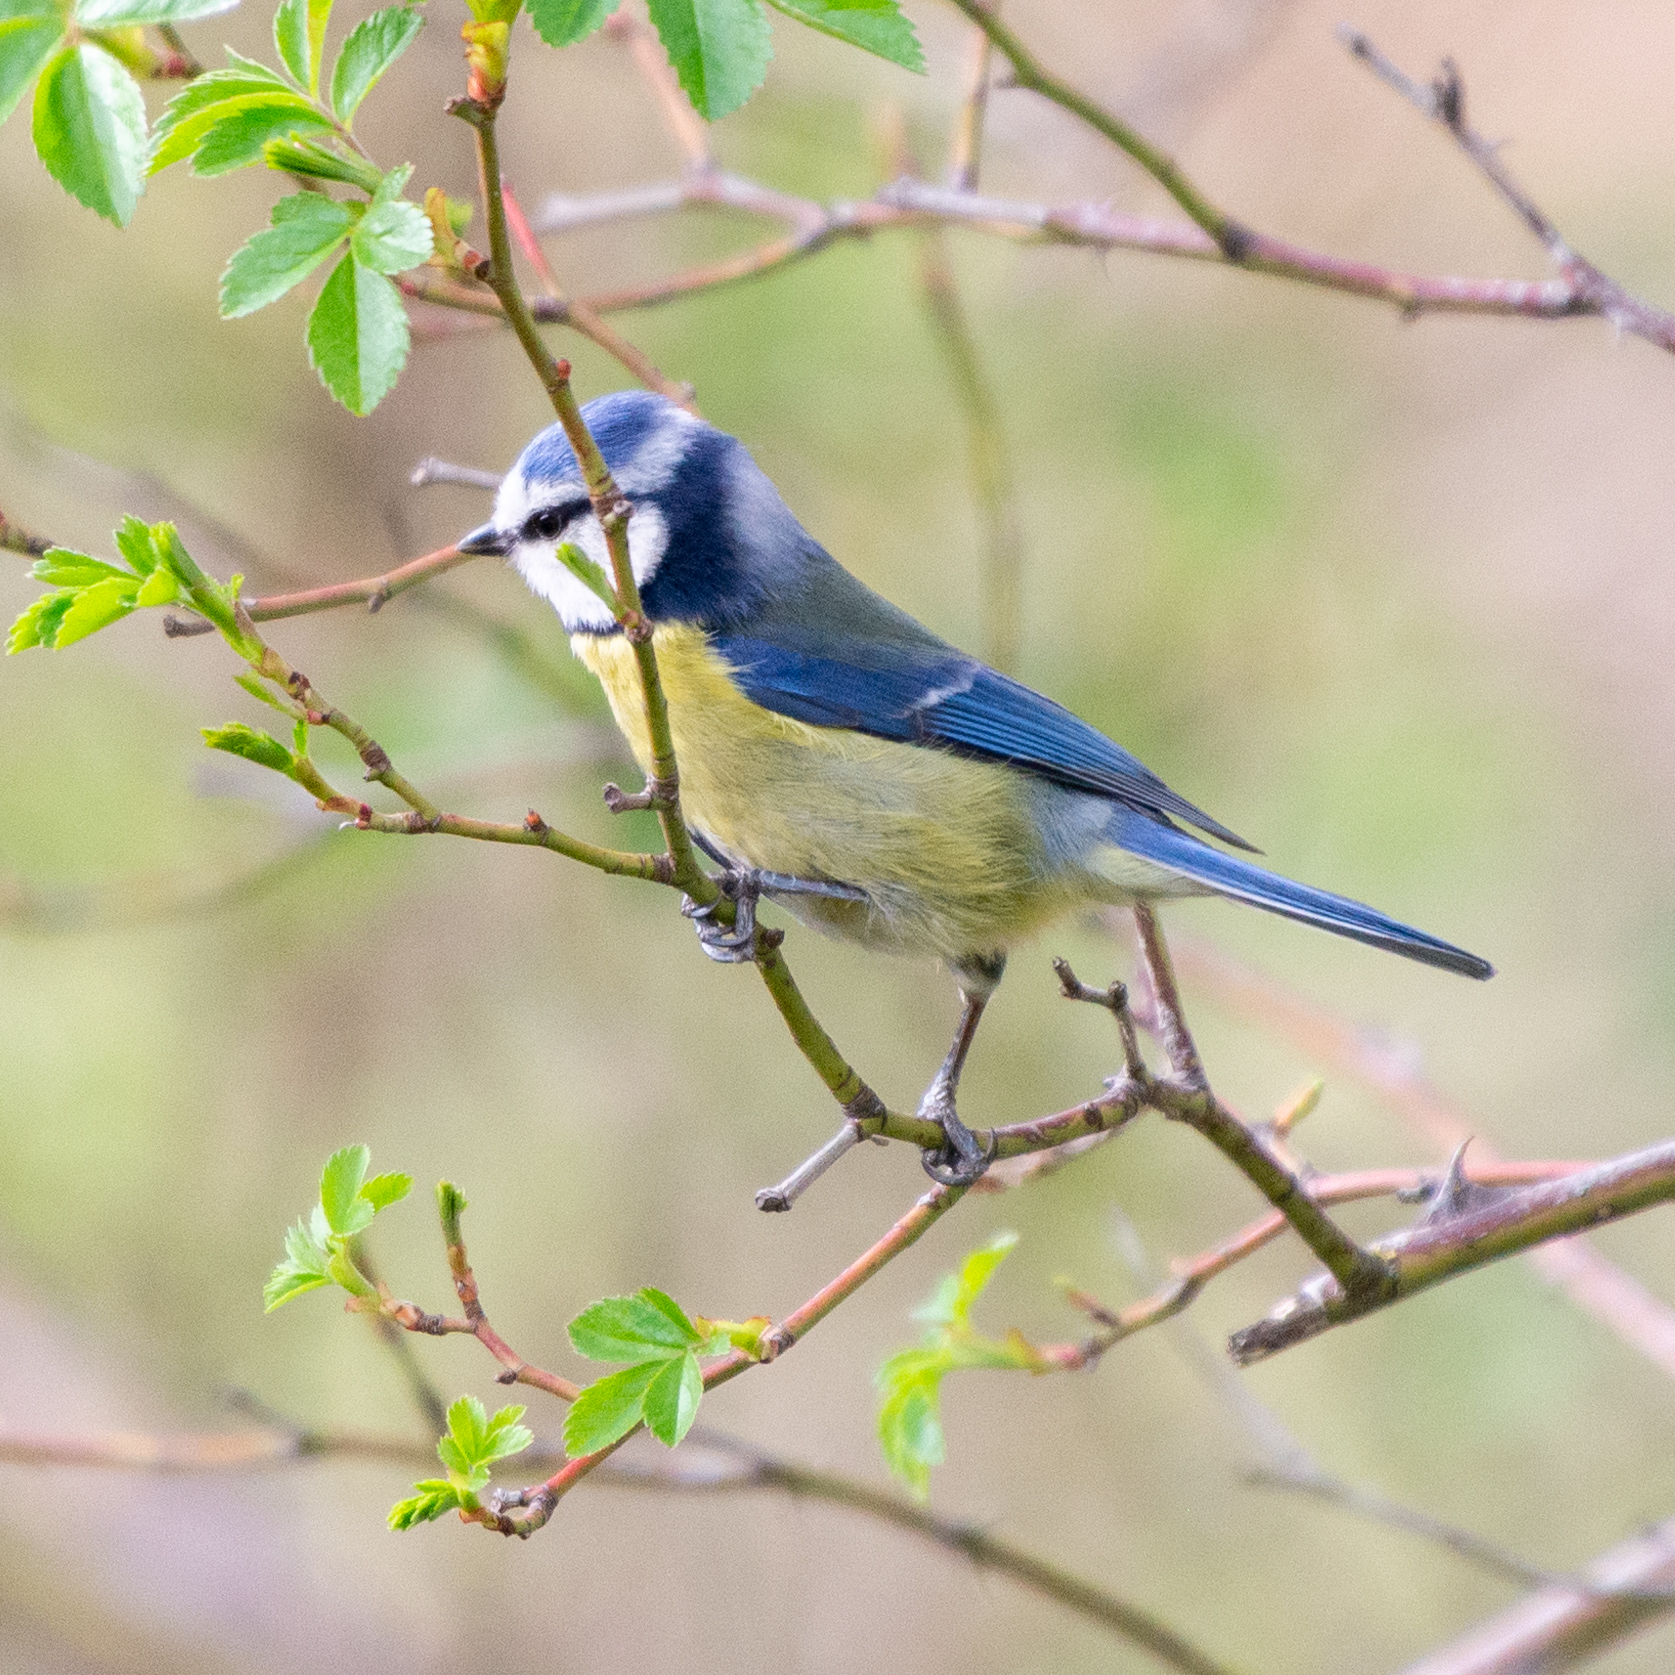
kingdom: Animalia
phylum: Chordata
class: Aves
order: Passeriformes
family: Paridae
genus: Cyanistes
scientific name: Cyanistes caeruleus
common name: Eurasian blue tit
